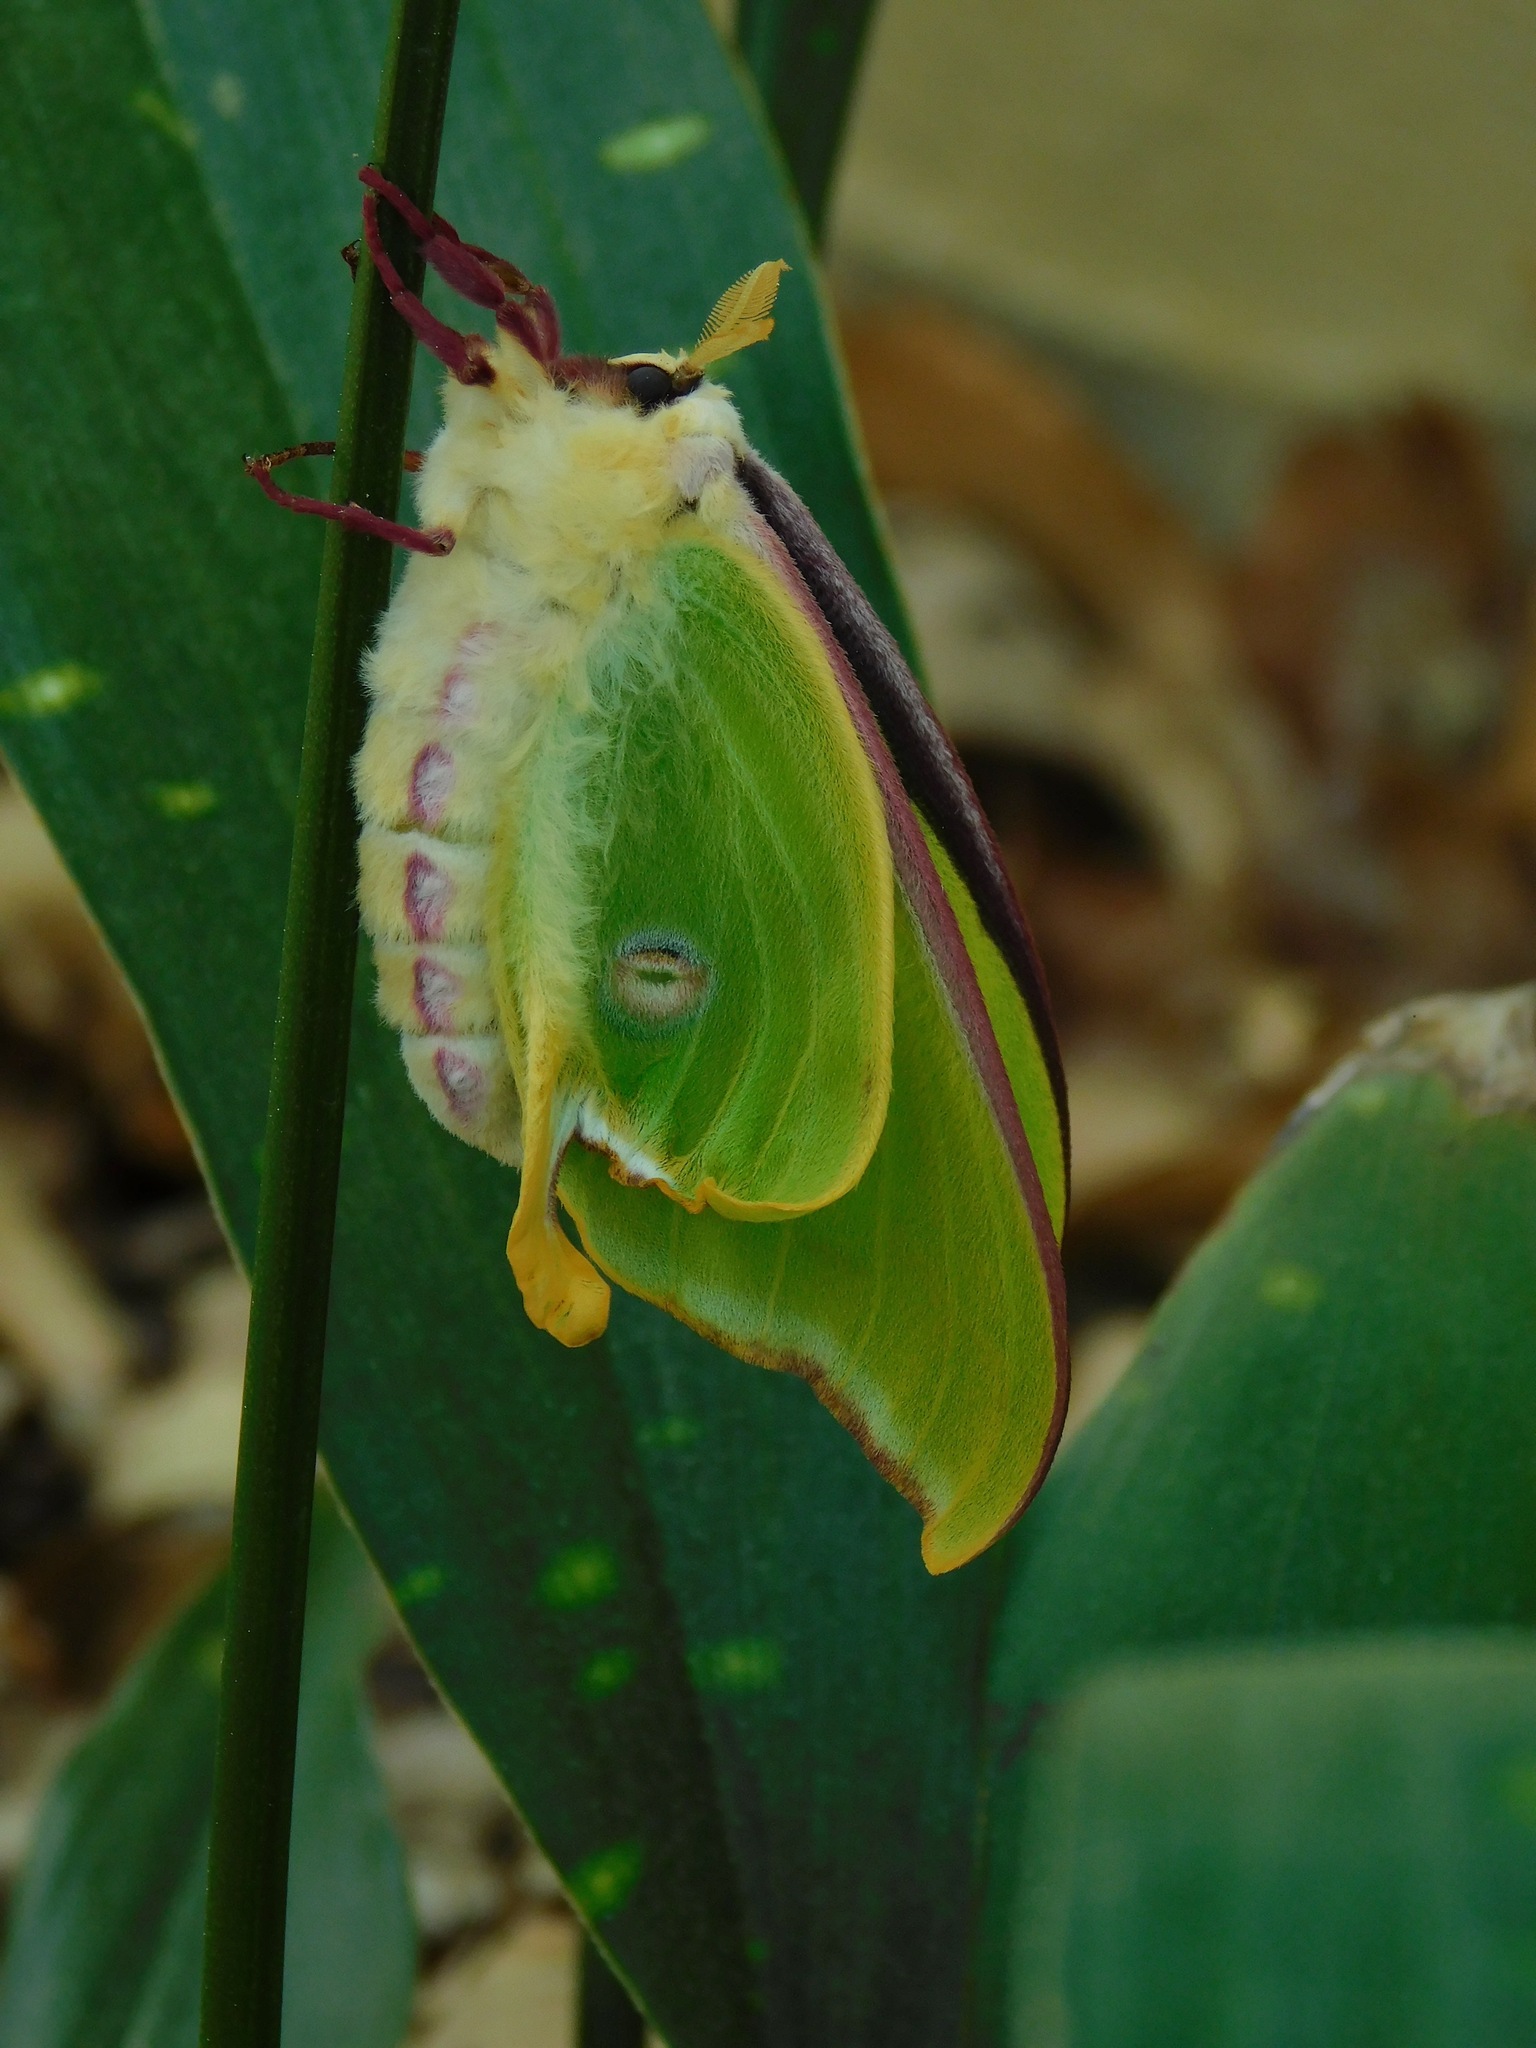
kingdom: Animalia
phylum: Arthropoda
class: Insecta
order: Lepidoptera
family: Saturniidae
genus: Actias
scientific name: Actias luna
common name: Luna moth
